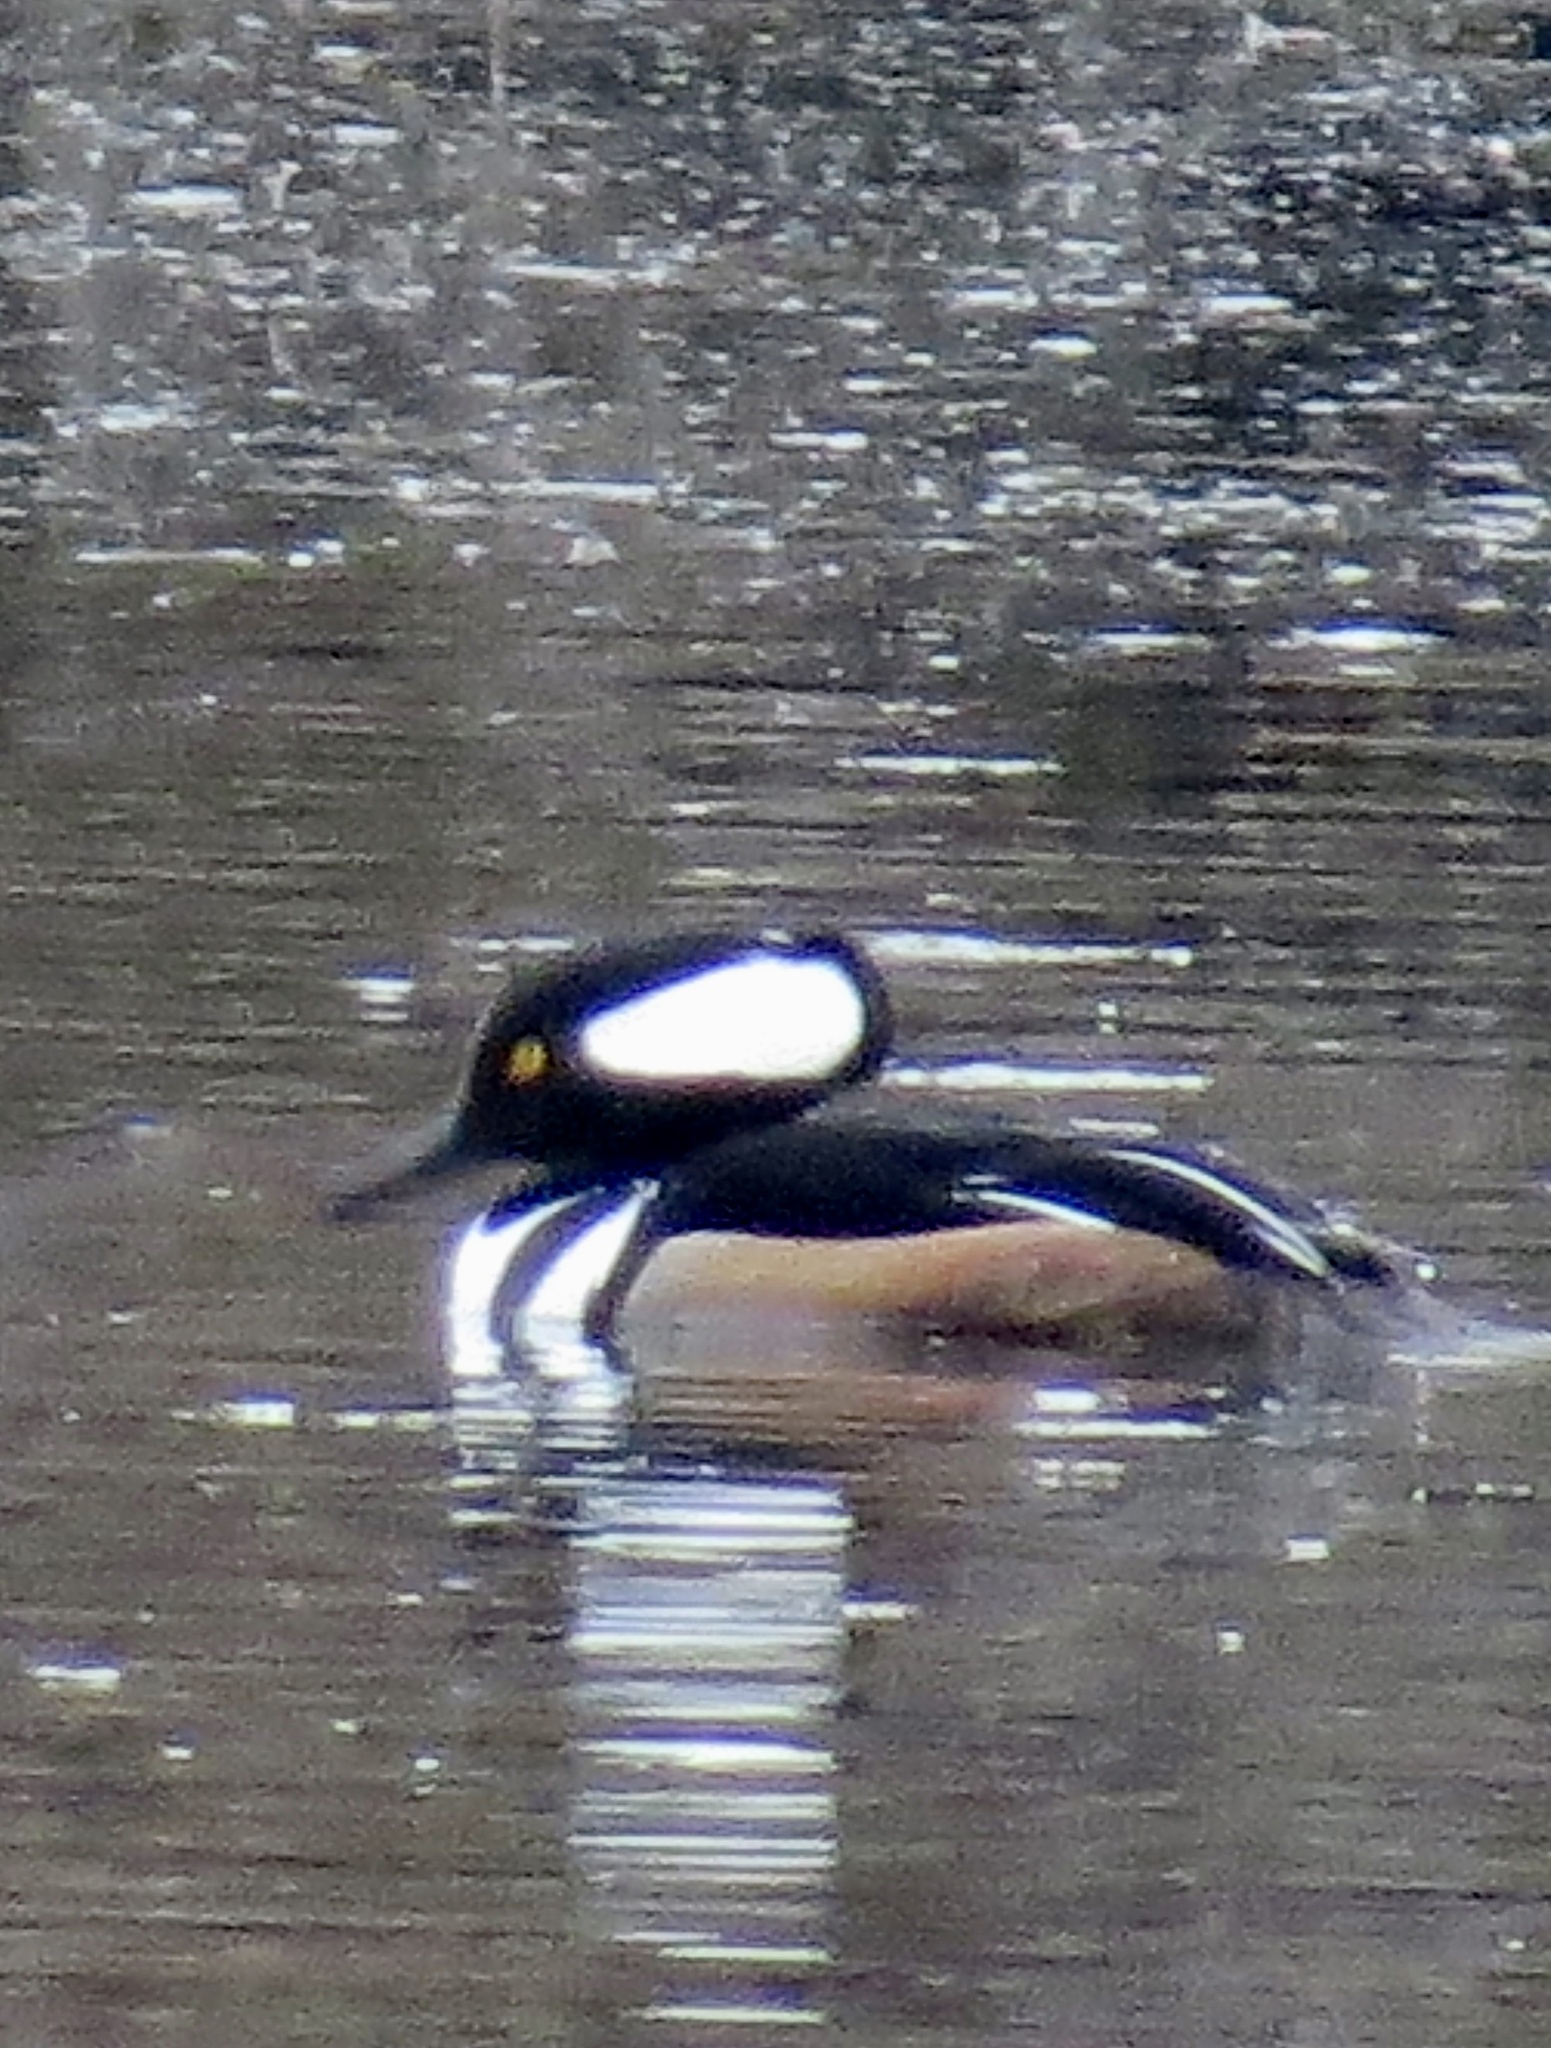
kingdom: Animalia
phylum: Chordata
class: Aves
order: Anseriformes
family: Anatidae
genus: Lophodytes
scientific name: Lophodytes cucullatus
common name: Hooded merganser
